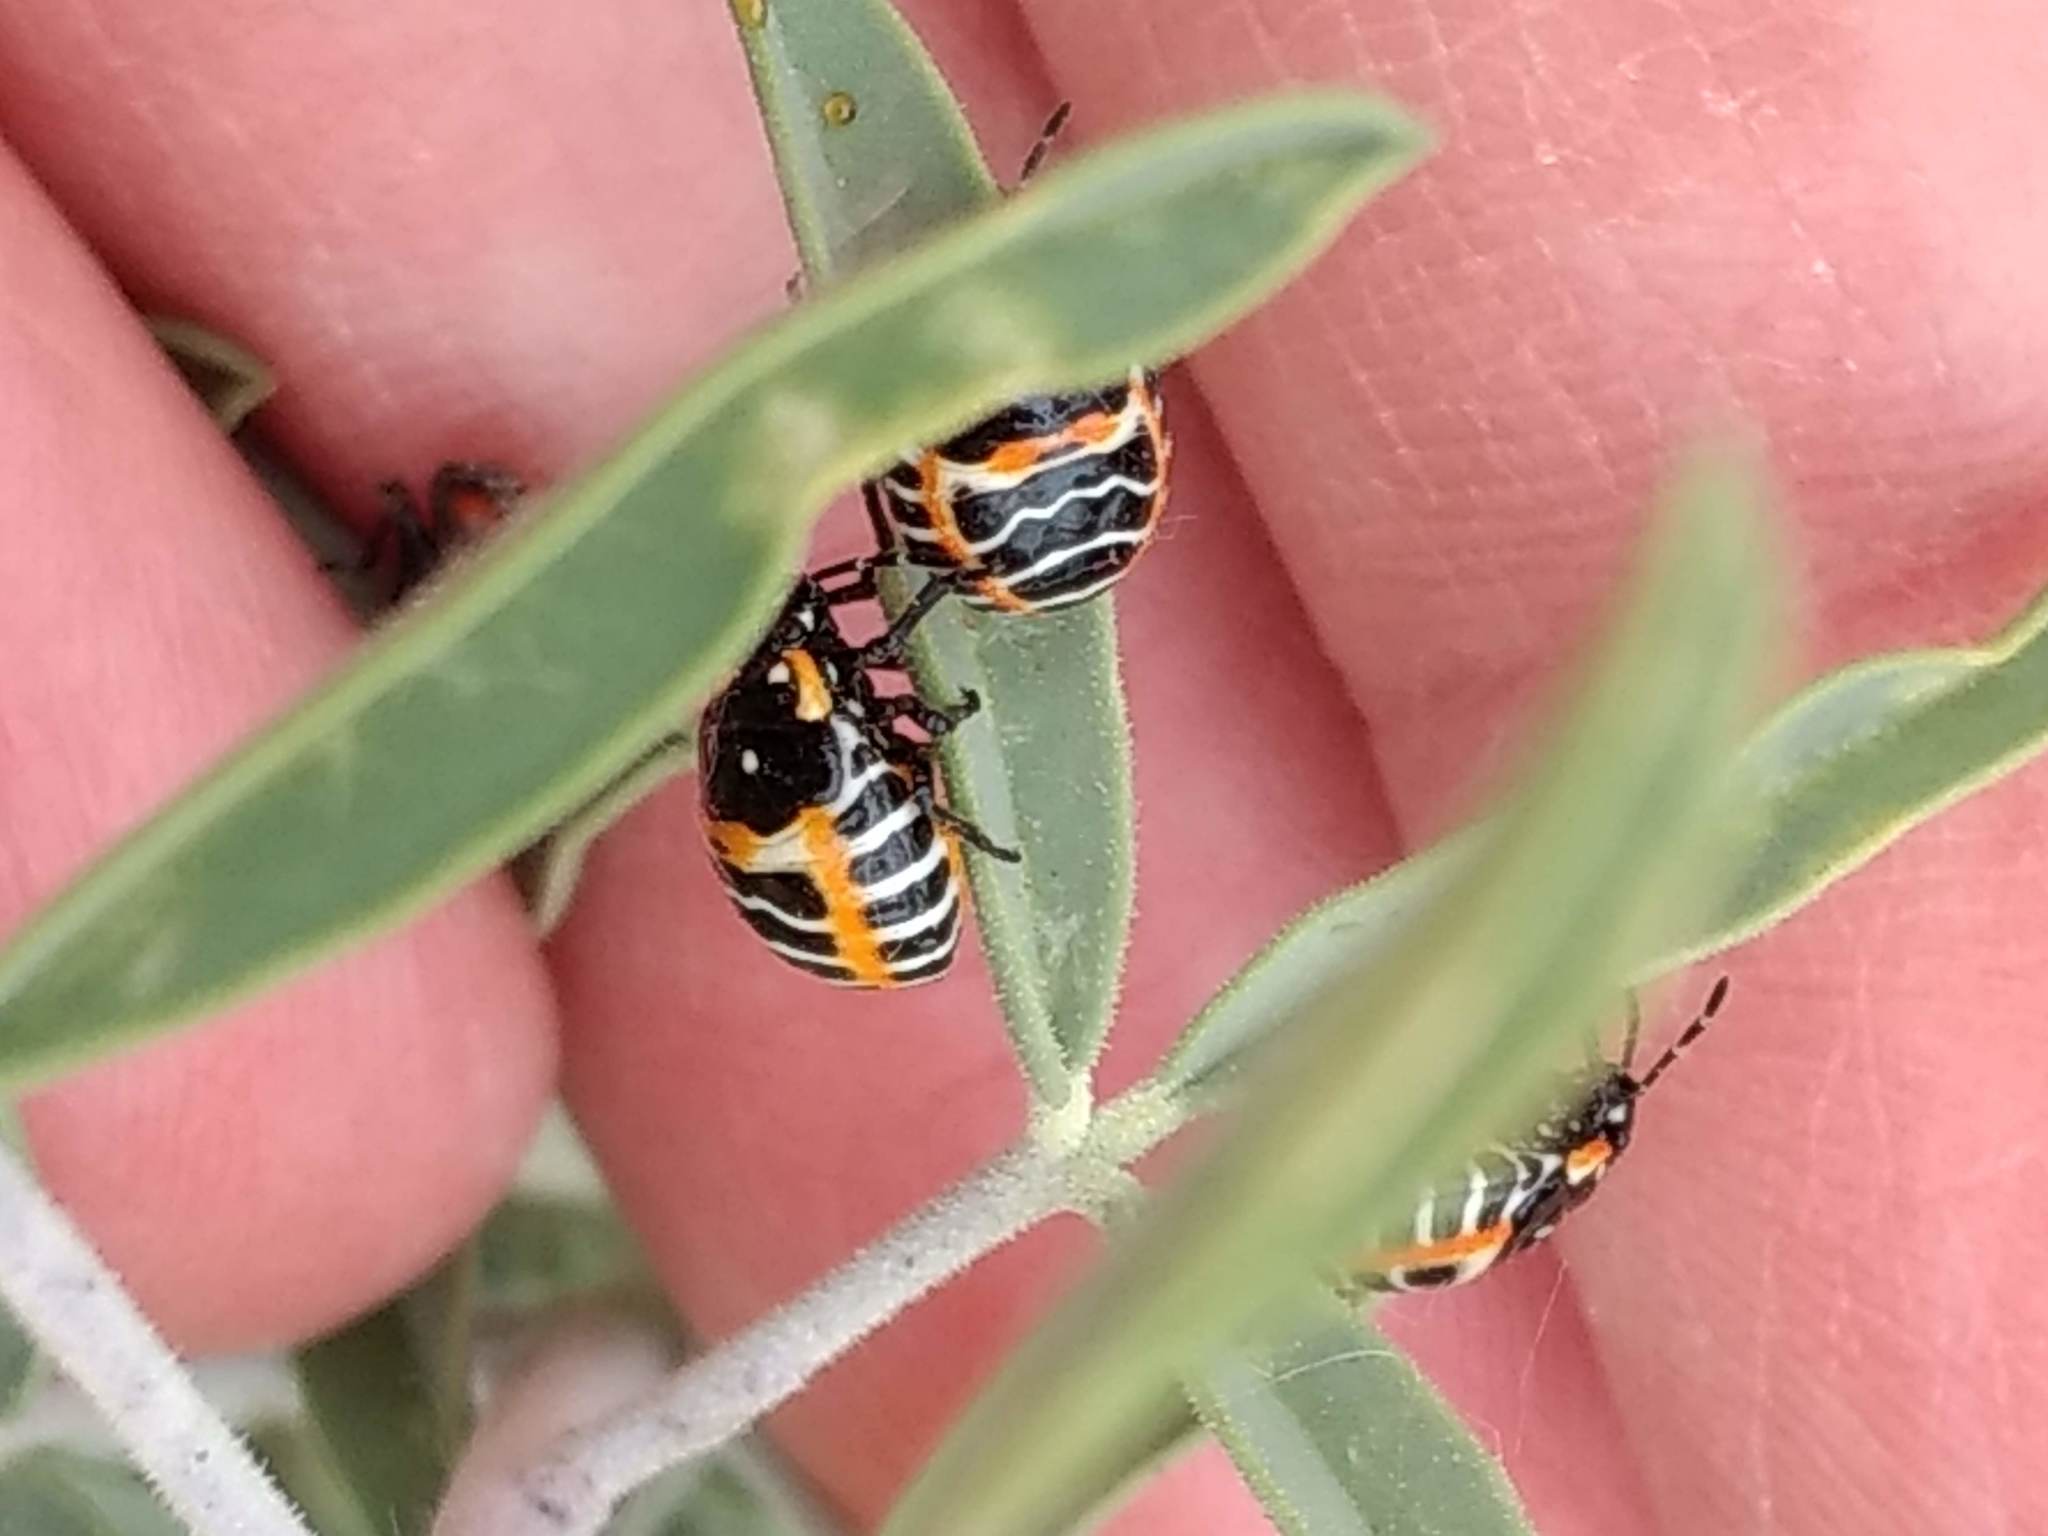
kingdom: Animalia
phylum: Arthropoda
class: Insecta
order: Hemiptera
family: Pentatomidae
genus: Murgantia
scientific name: Murgantia histrionica
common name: Harlequin bug
